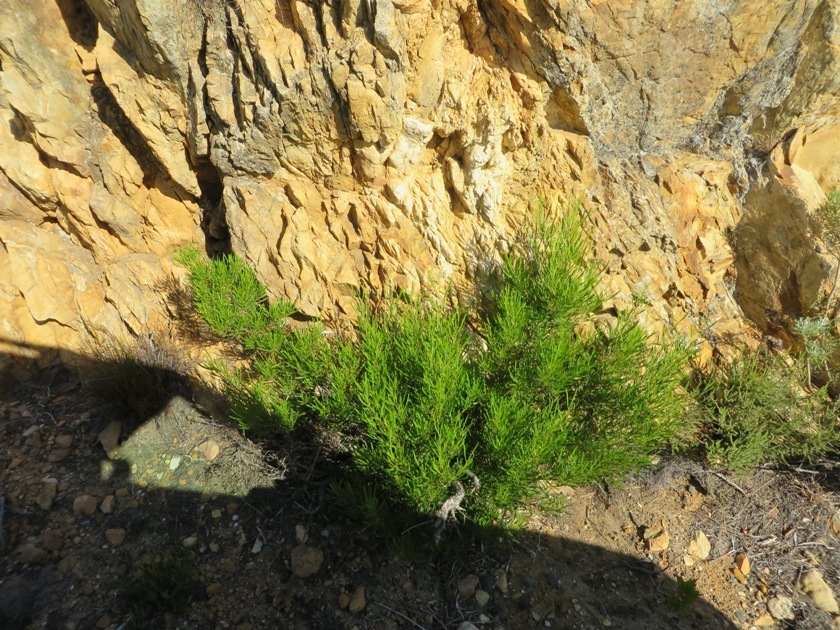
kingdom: Plantae
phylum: Tracheophyta
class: Magnoliopsida
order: Sapindales
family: Sapindaceae
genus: Dodonaea
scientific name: Dodonaea viscosa
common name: Hopbush
